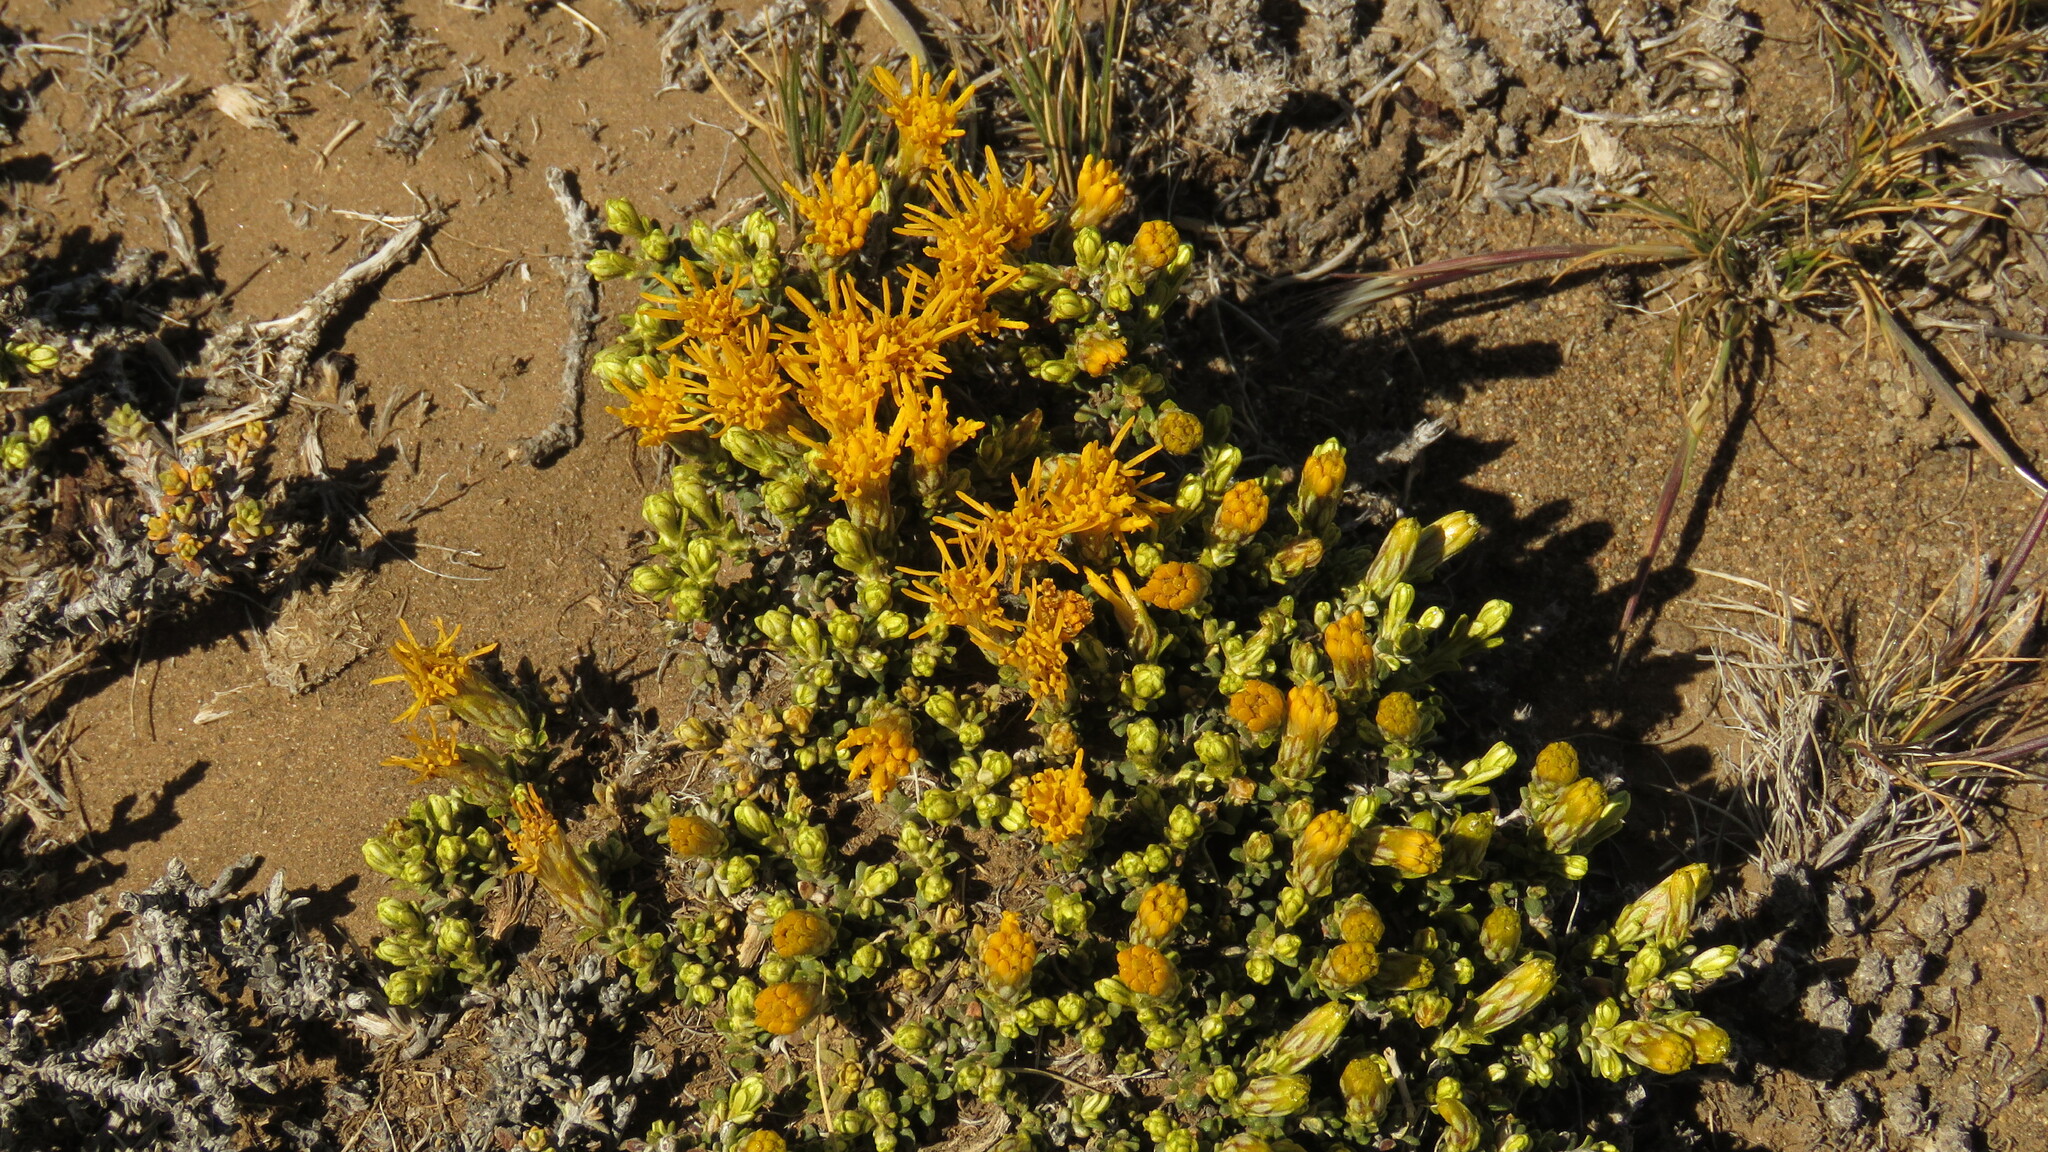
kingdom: Plantae
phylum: Tracheophyta
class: Magnoliopsida
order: Asterales
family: Asteraceae
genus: Nardophyllum
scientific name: Nardophyllum bryoides
